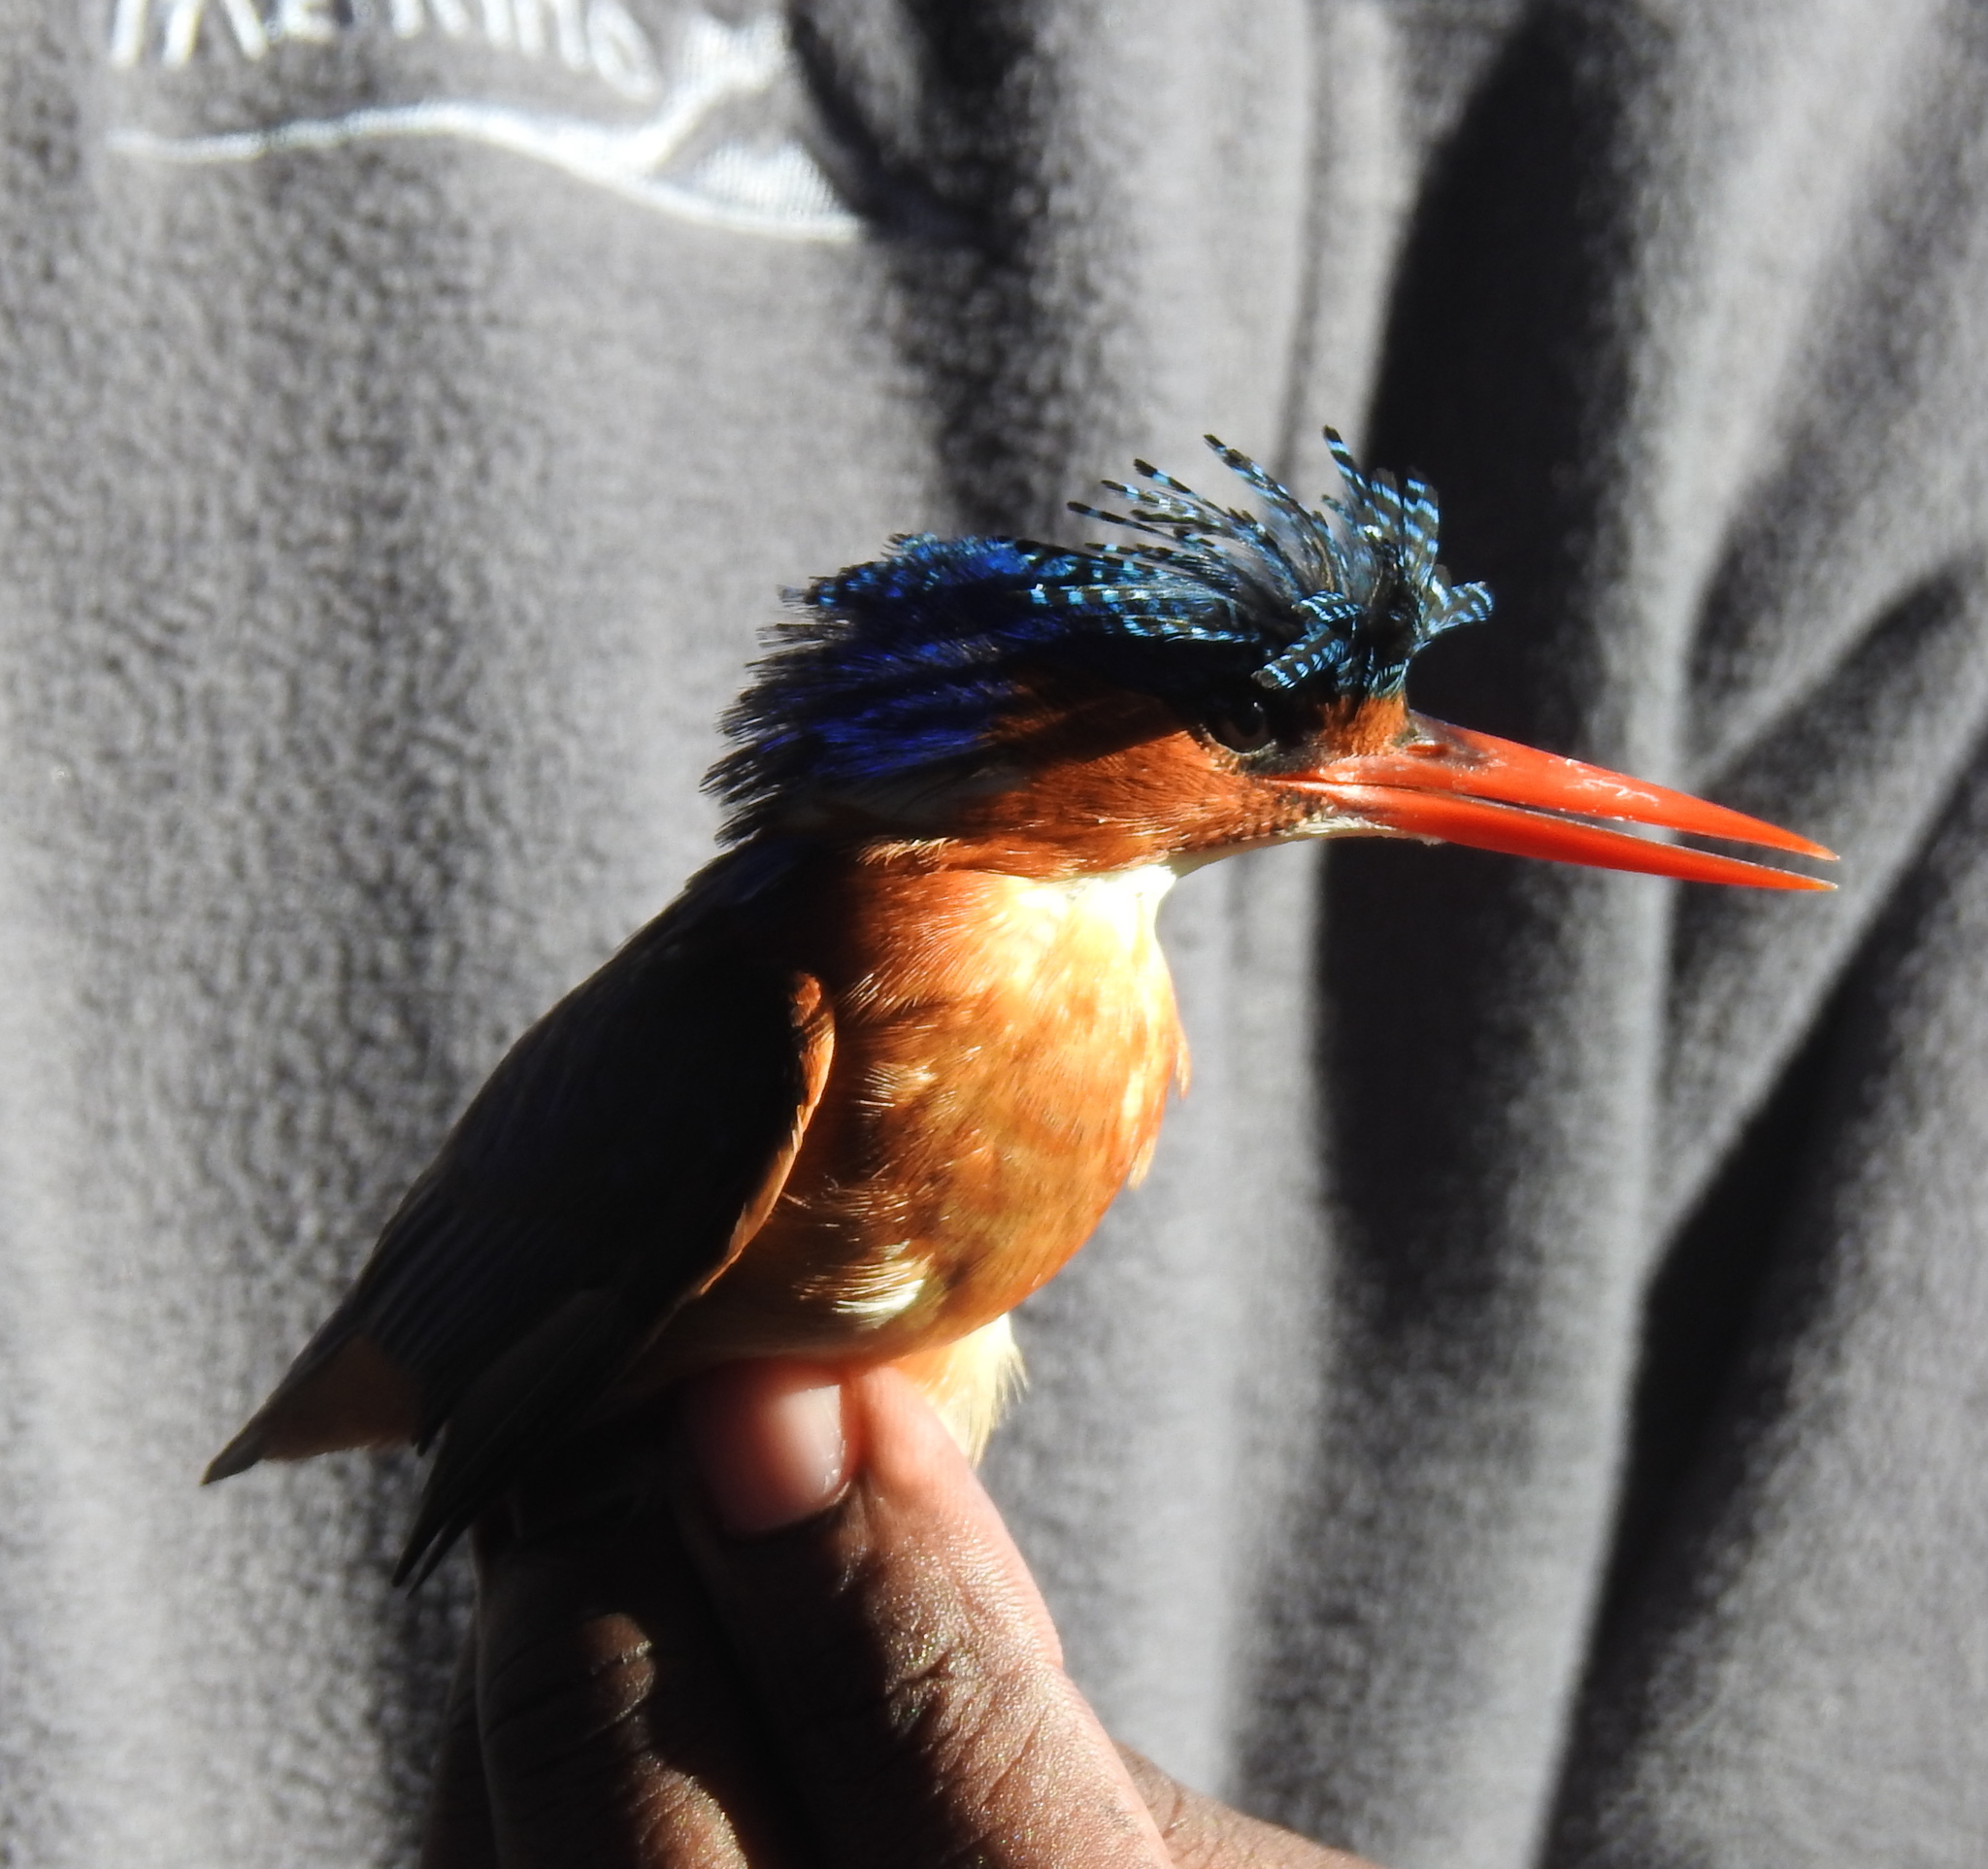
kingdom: Animalia
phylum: Chordata
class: Aves
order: Coraciiformes
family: Alcedinidae
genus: Corythornis
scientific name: Corythornis cristatus
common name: Malachite kingfisher
